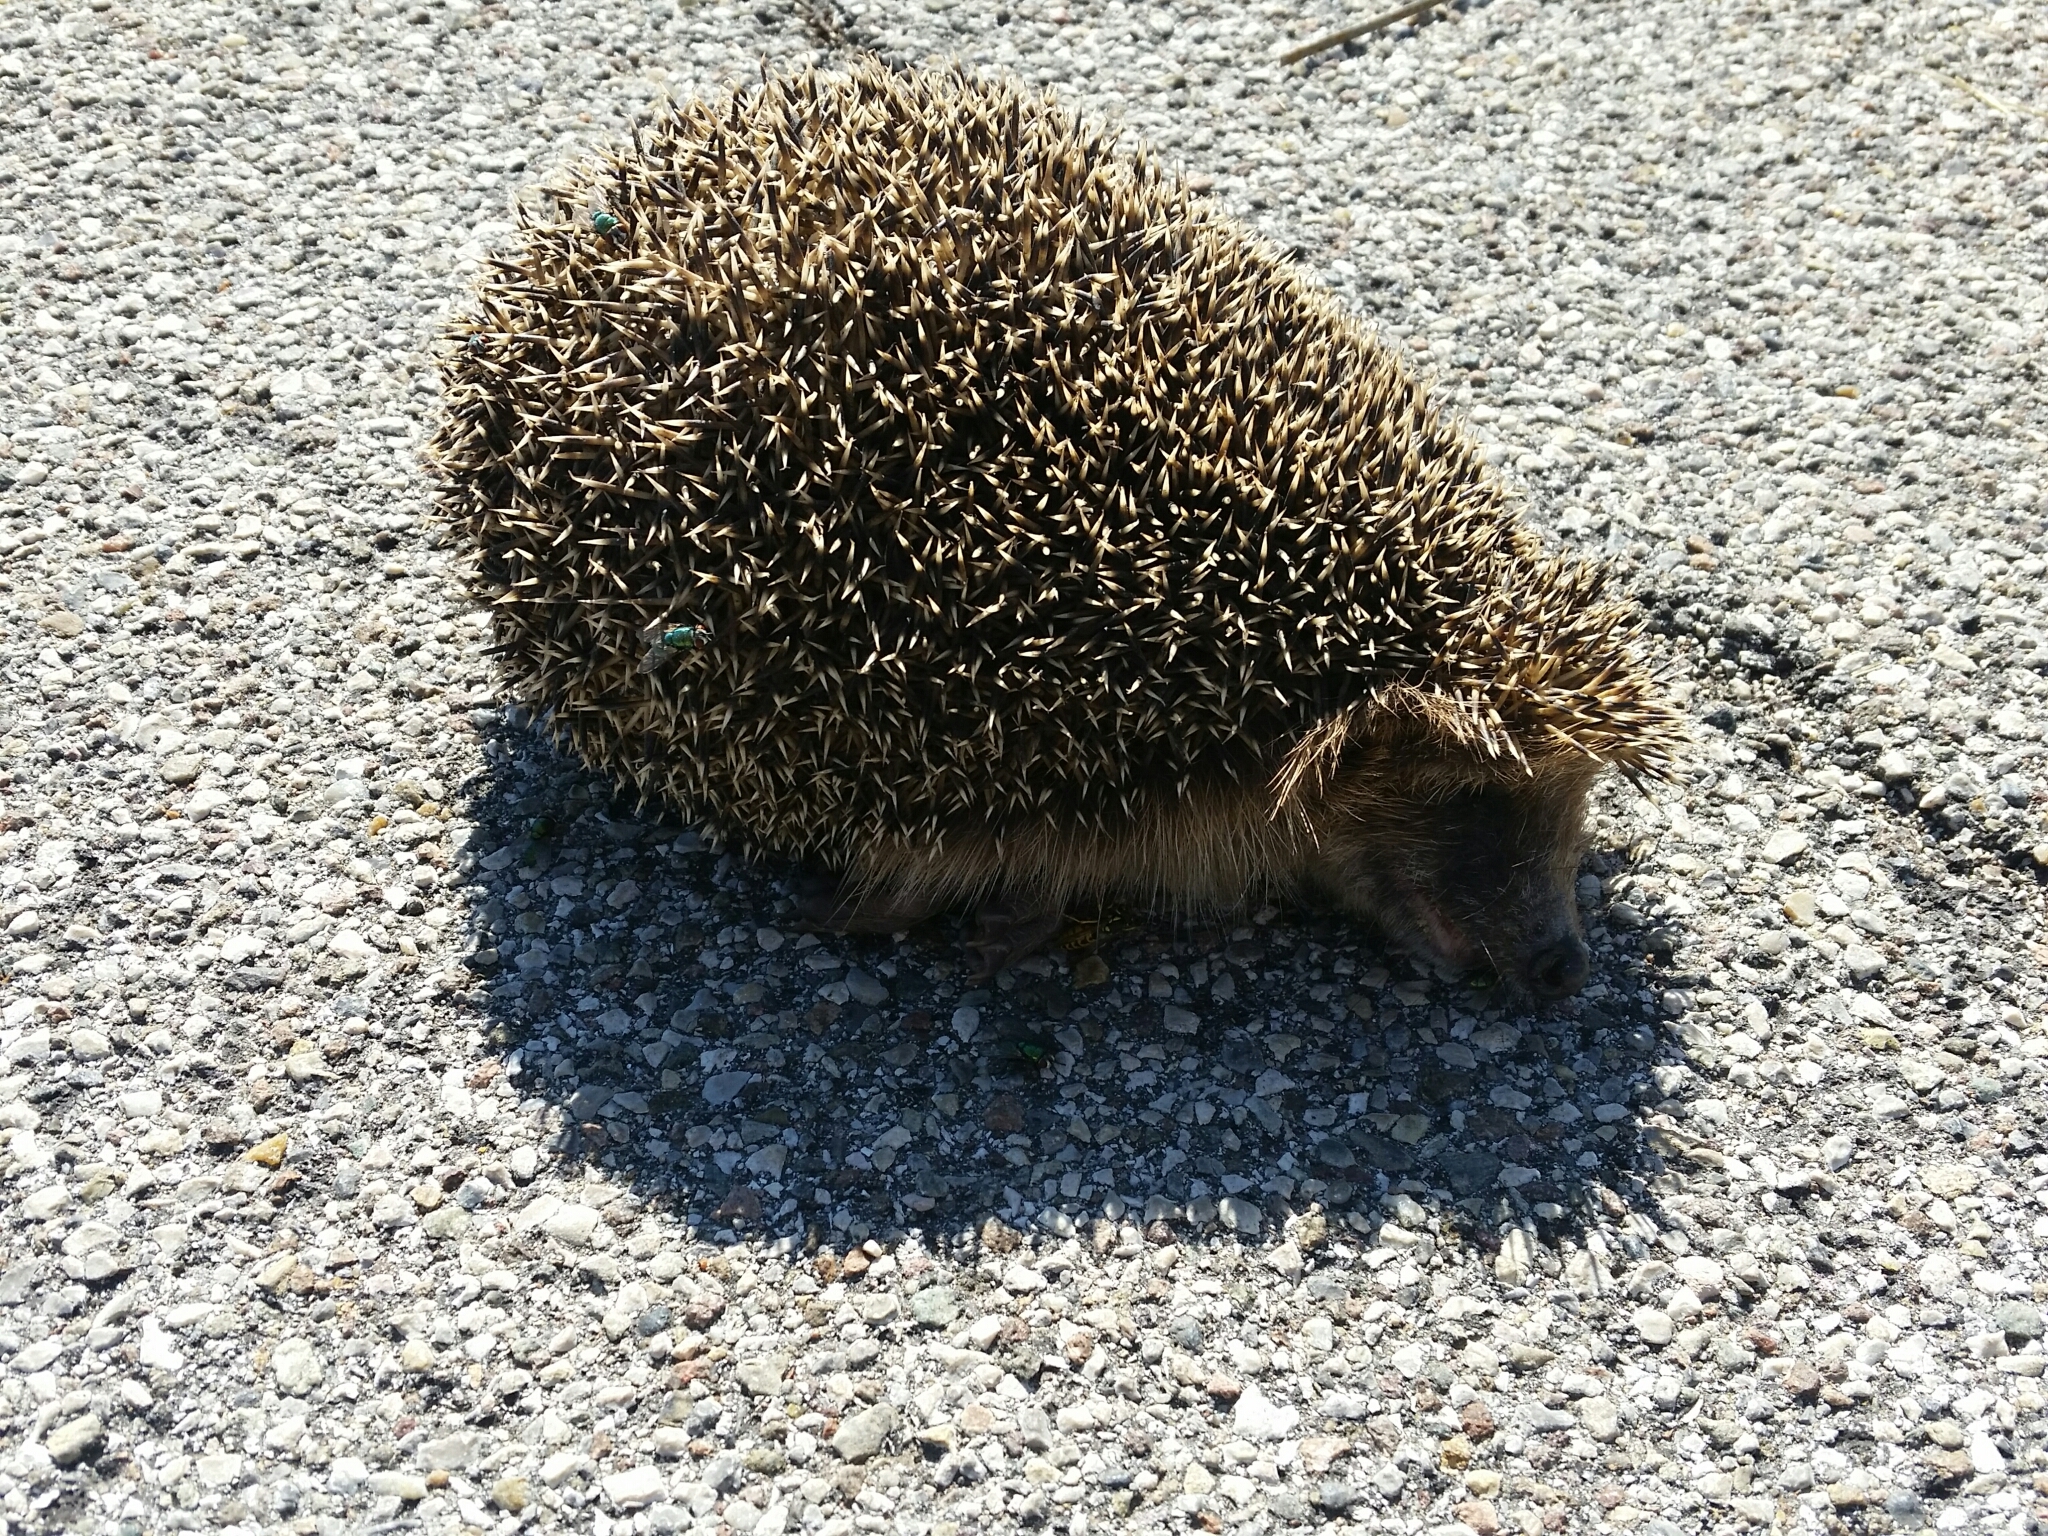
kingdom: Animalia
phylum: Chordata
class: Mammalia
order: Erinaceomorpha
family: Erinaceidae
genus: Erinaceus
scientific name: Erinaceus europaeus
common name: West european hedgehog
